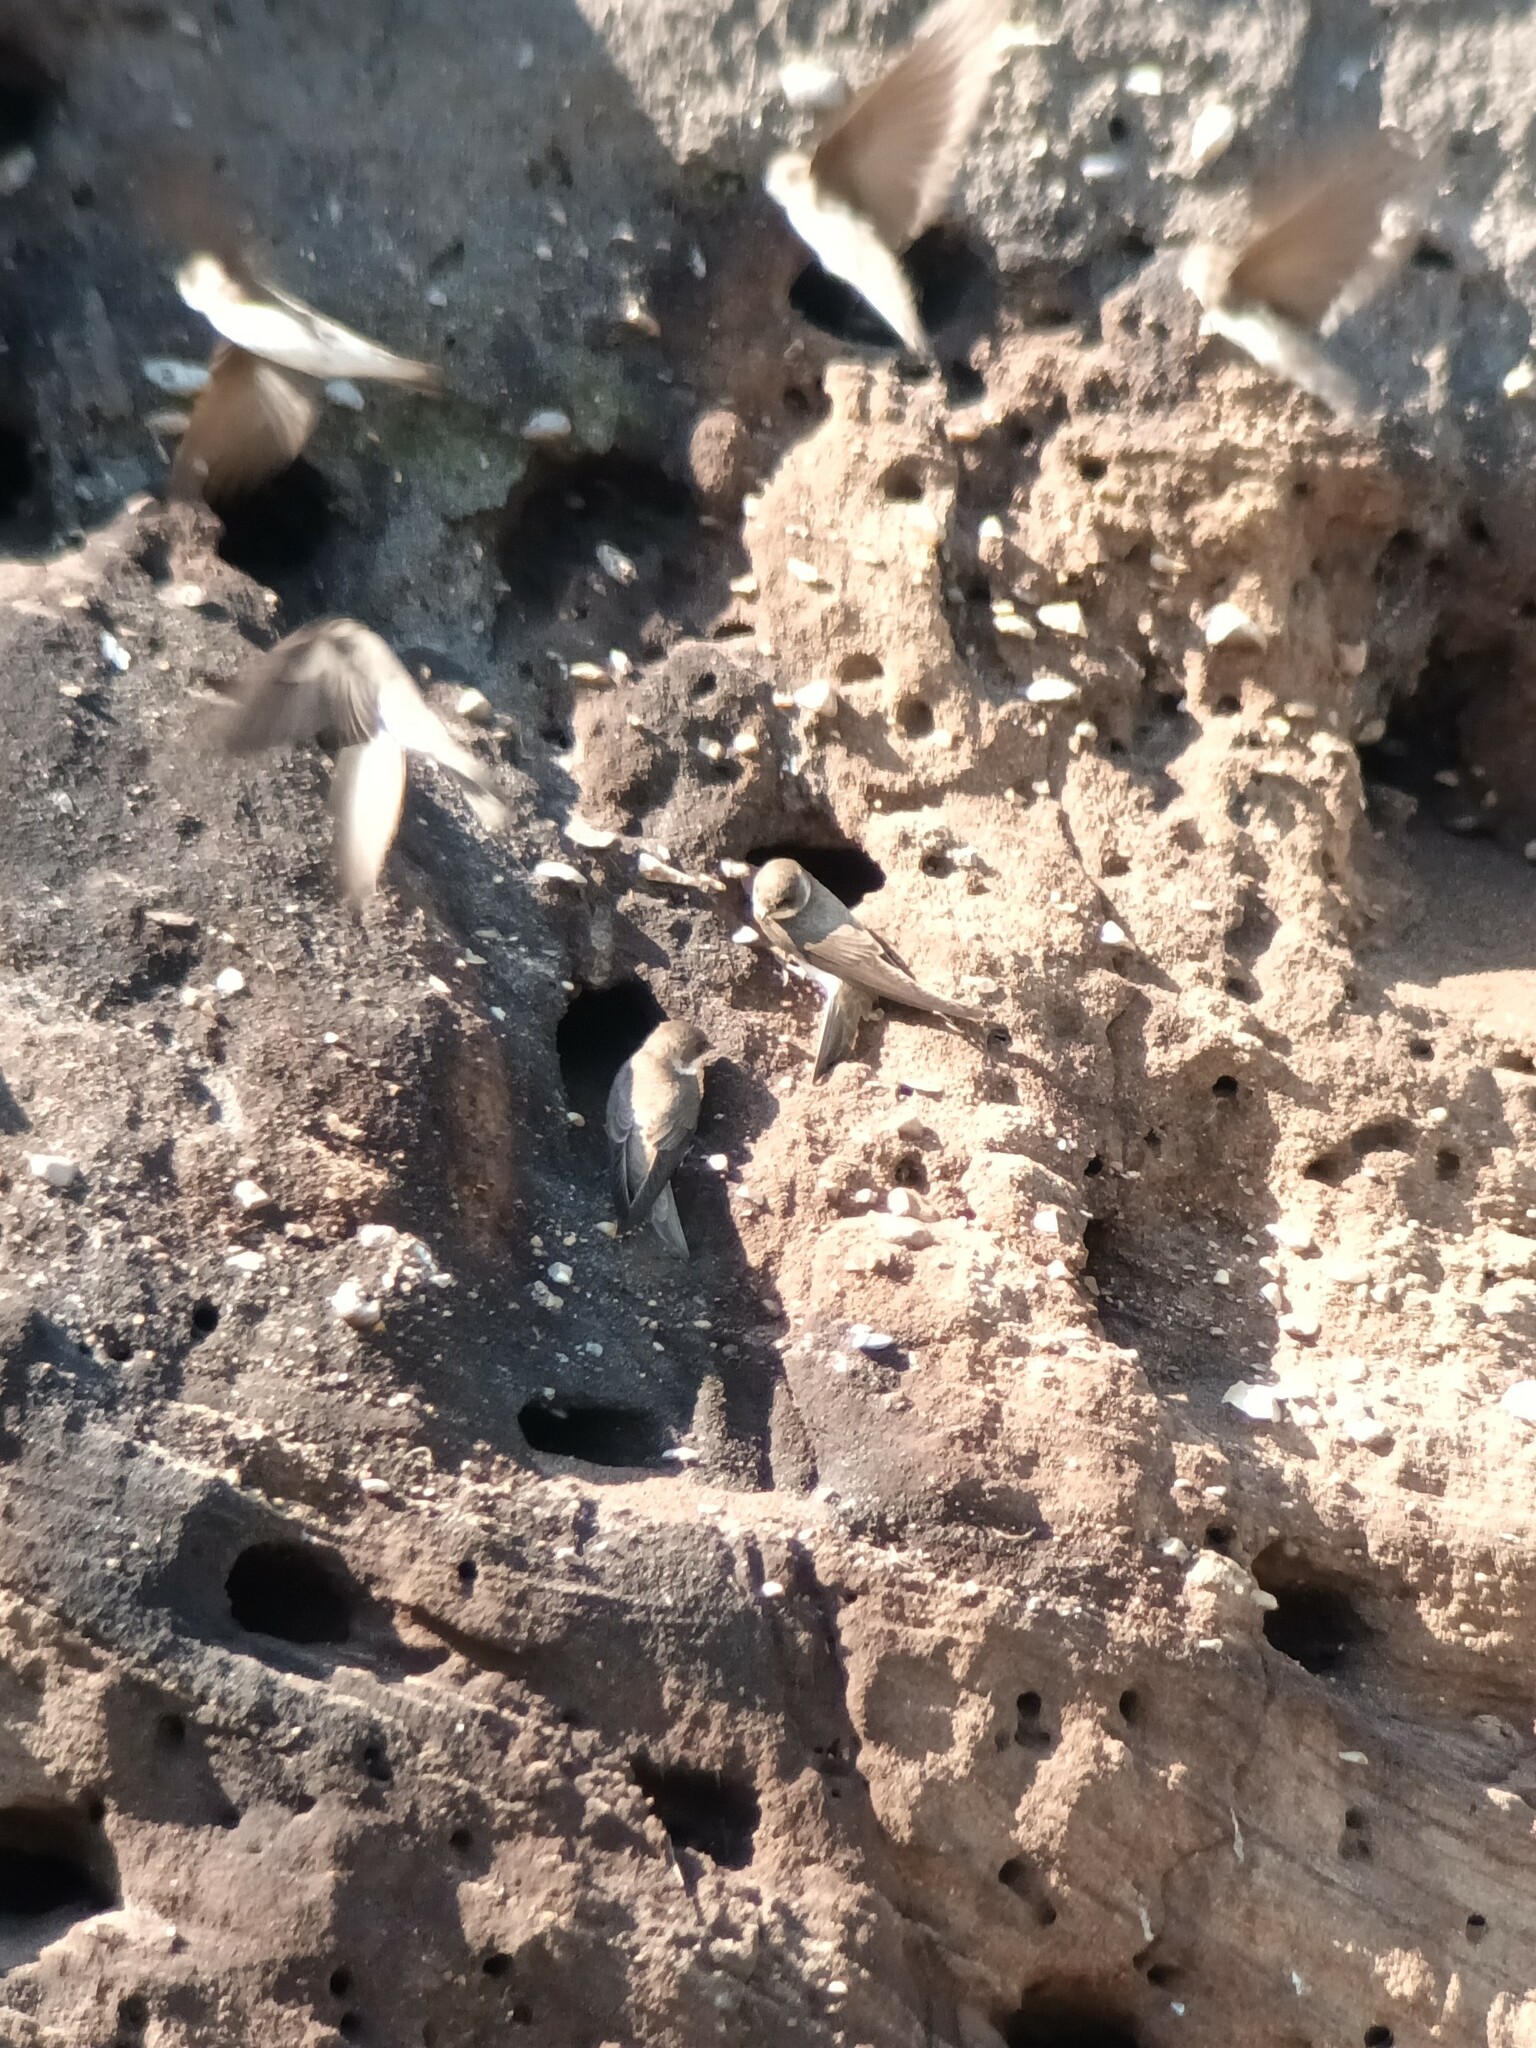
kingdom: Animalia
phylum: Chordata
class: Aves
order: Passeriformes
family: Hirundinidae
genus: Riparia
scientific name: Riparia riparia
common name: Sand martin
